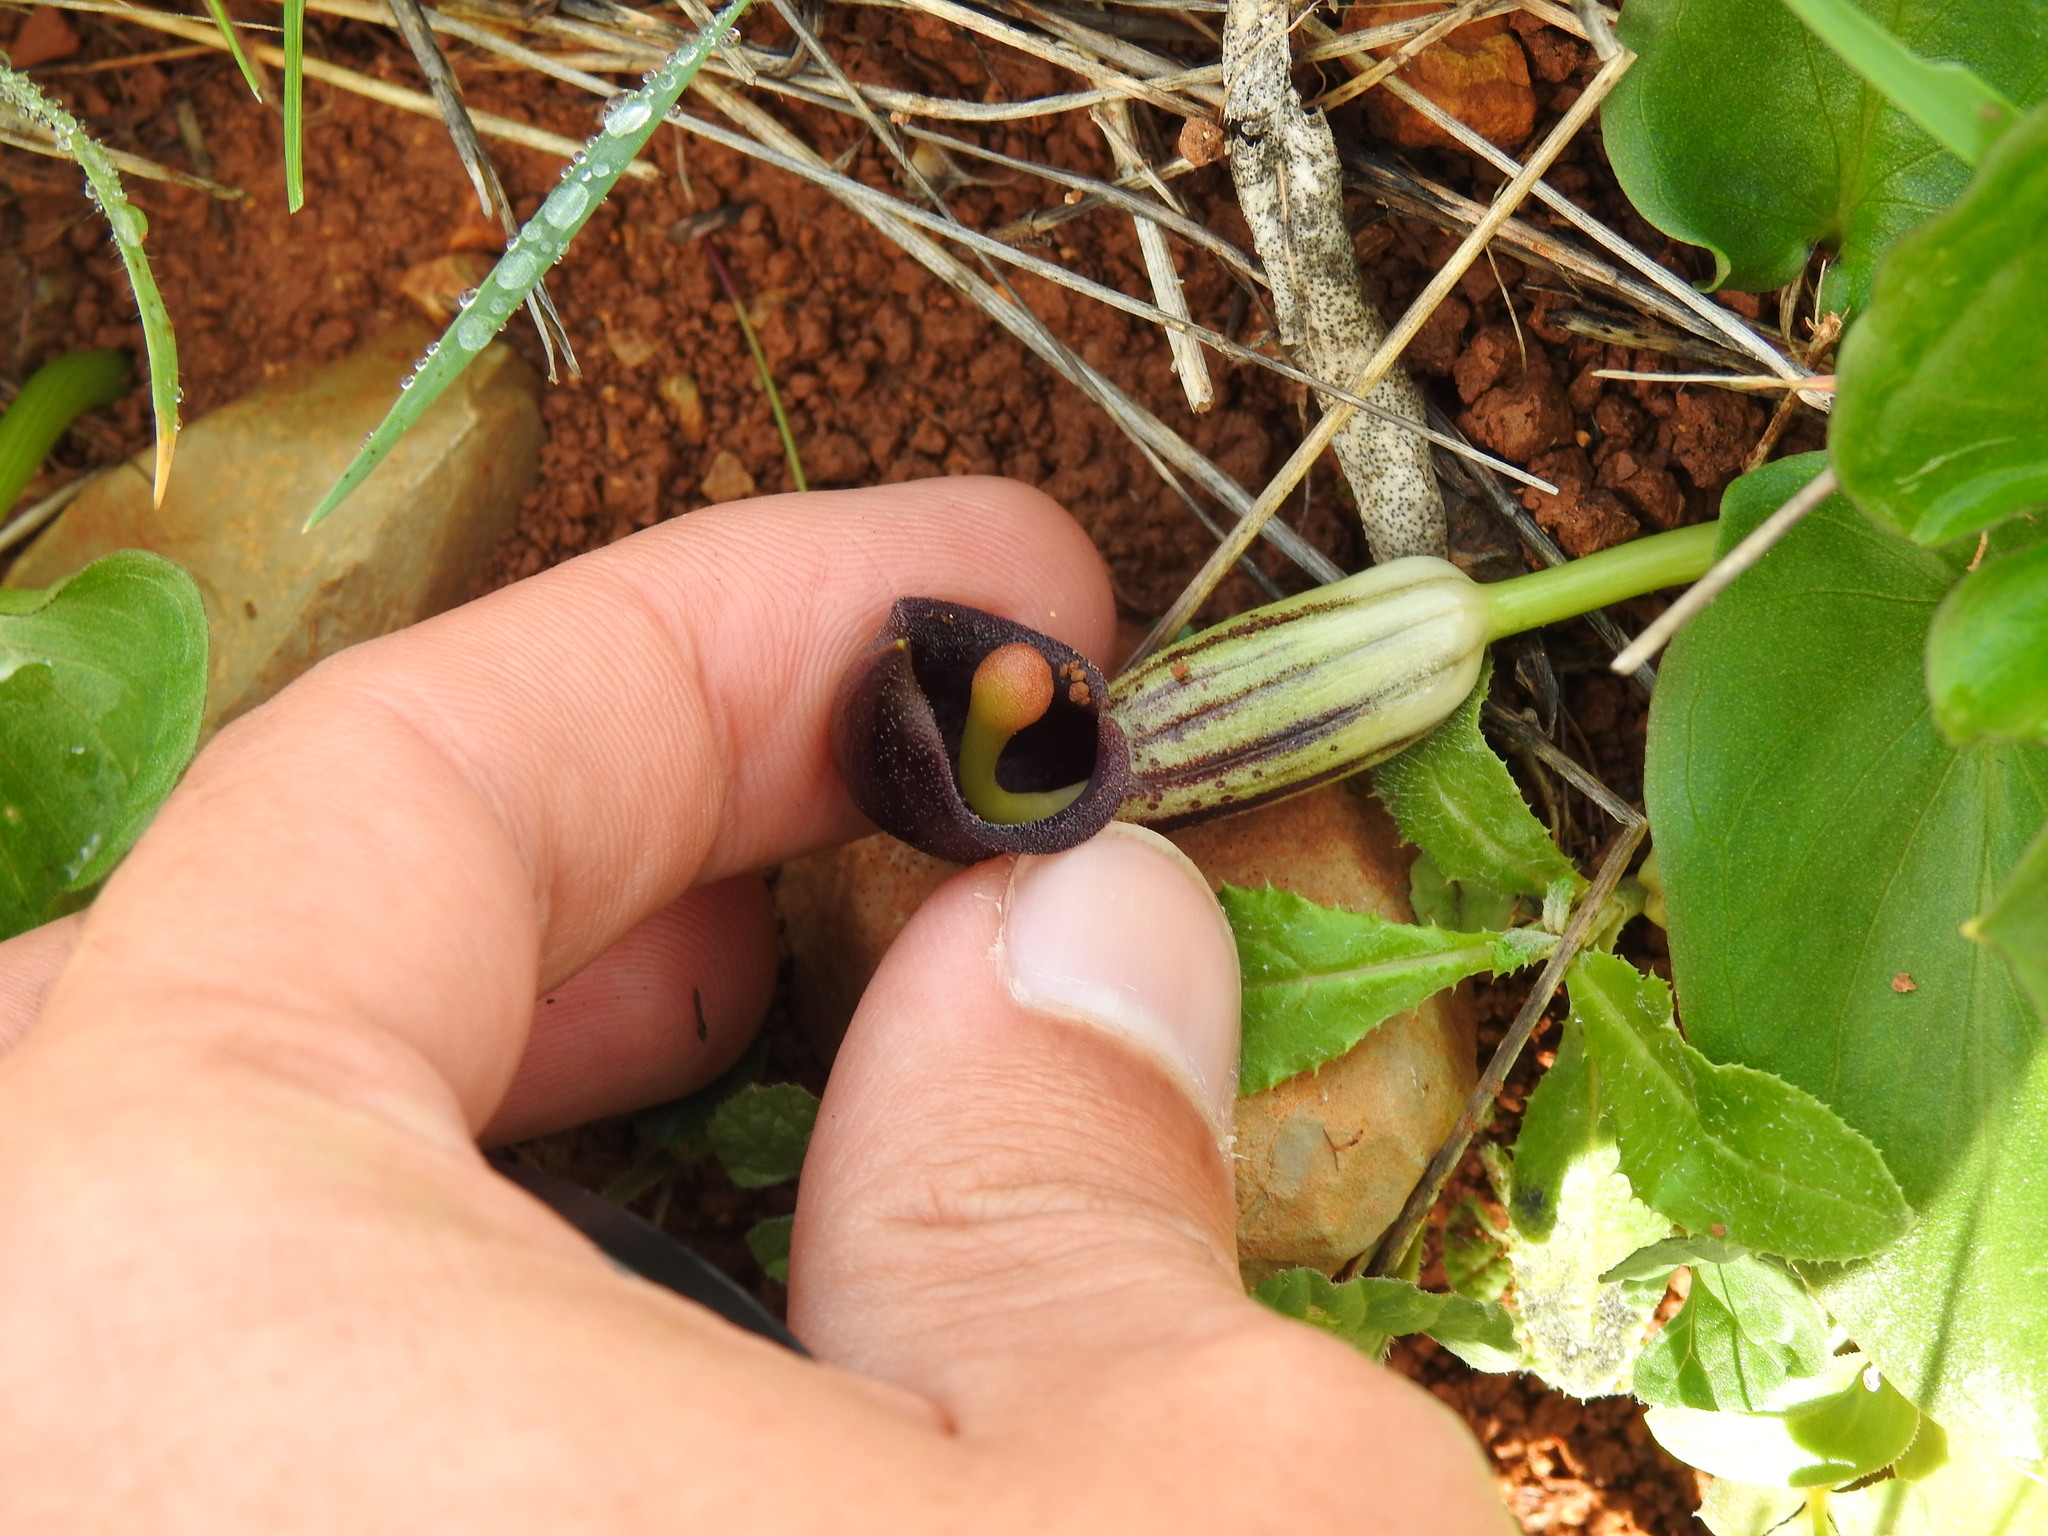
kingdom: Plantae
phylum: Tracheophyta
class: Liliopsida
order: Alismatales
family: Araceae
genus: Arisarum
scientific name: Arisarum simorrhinum
